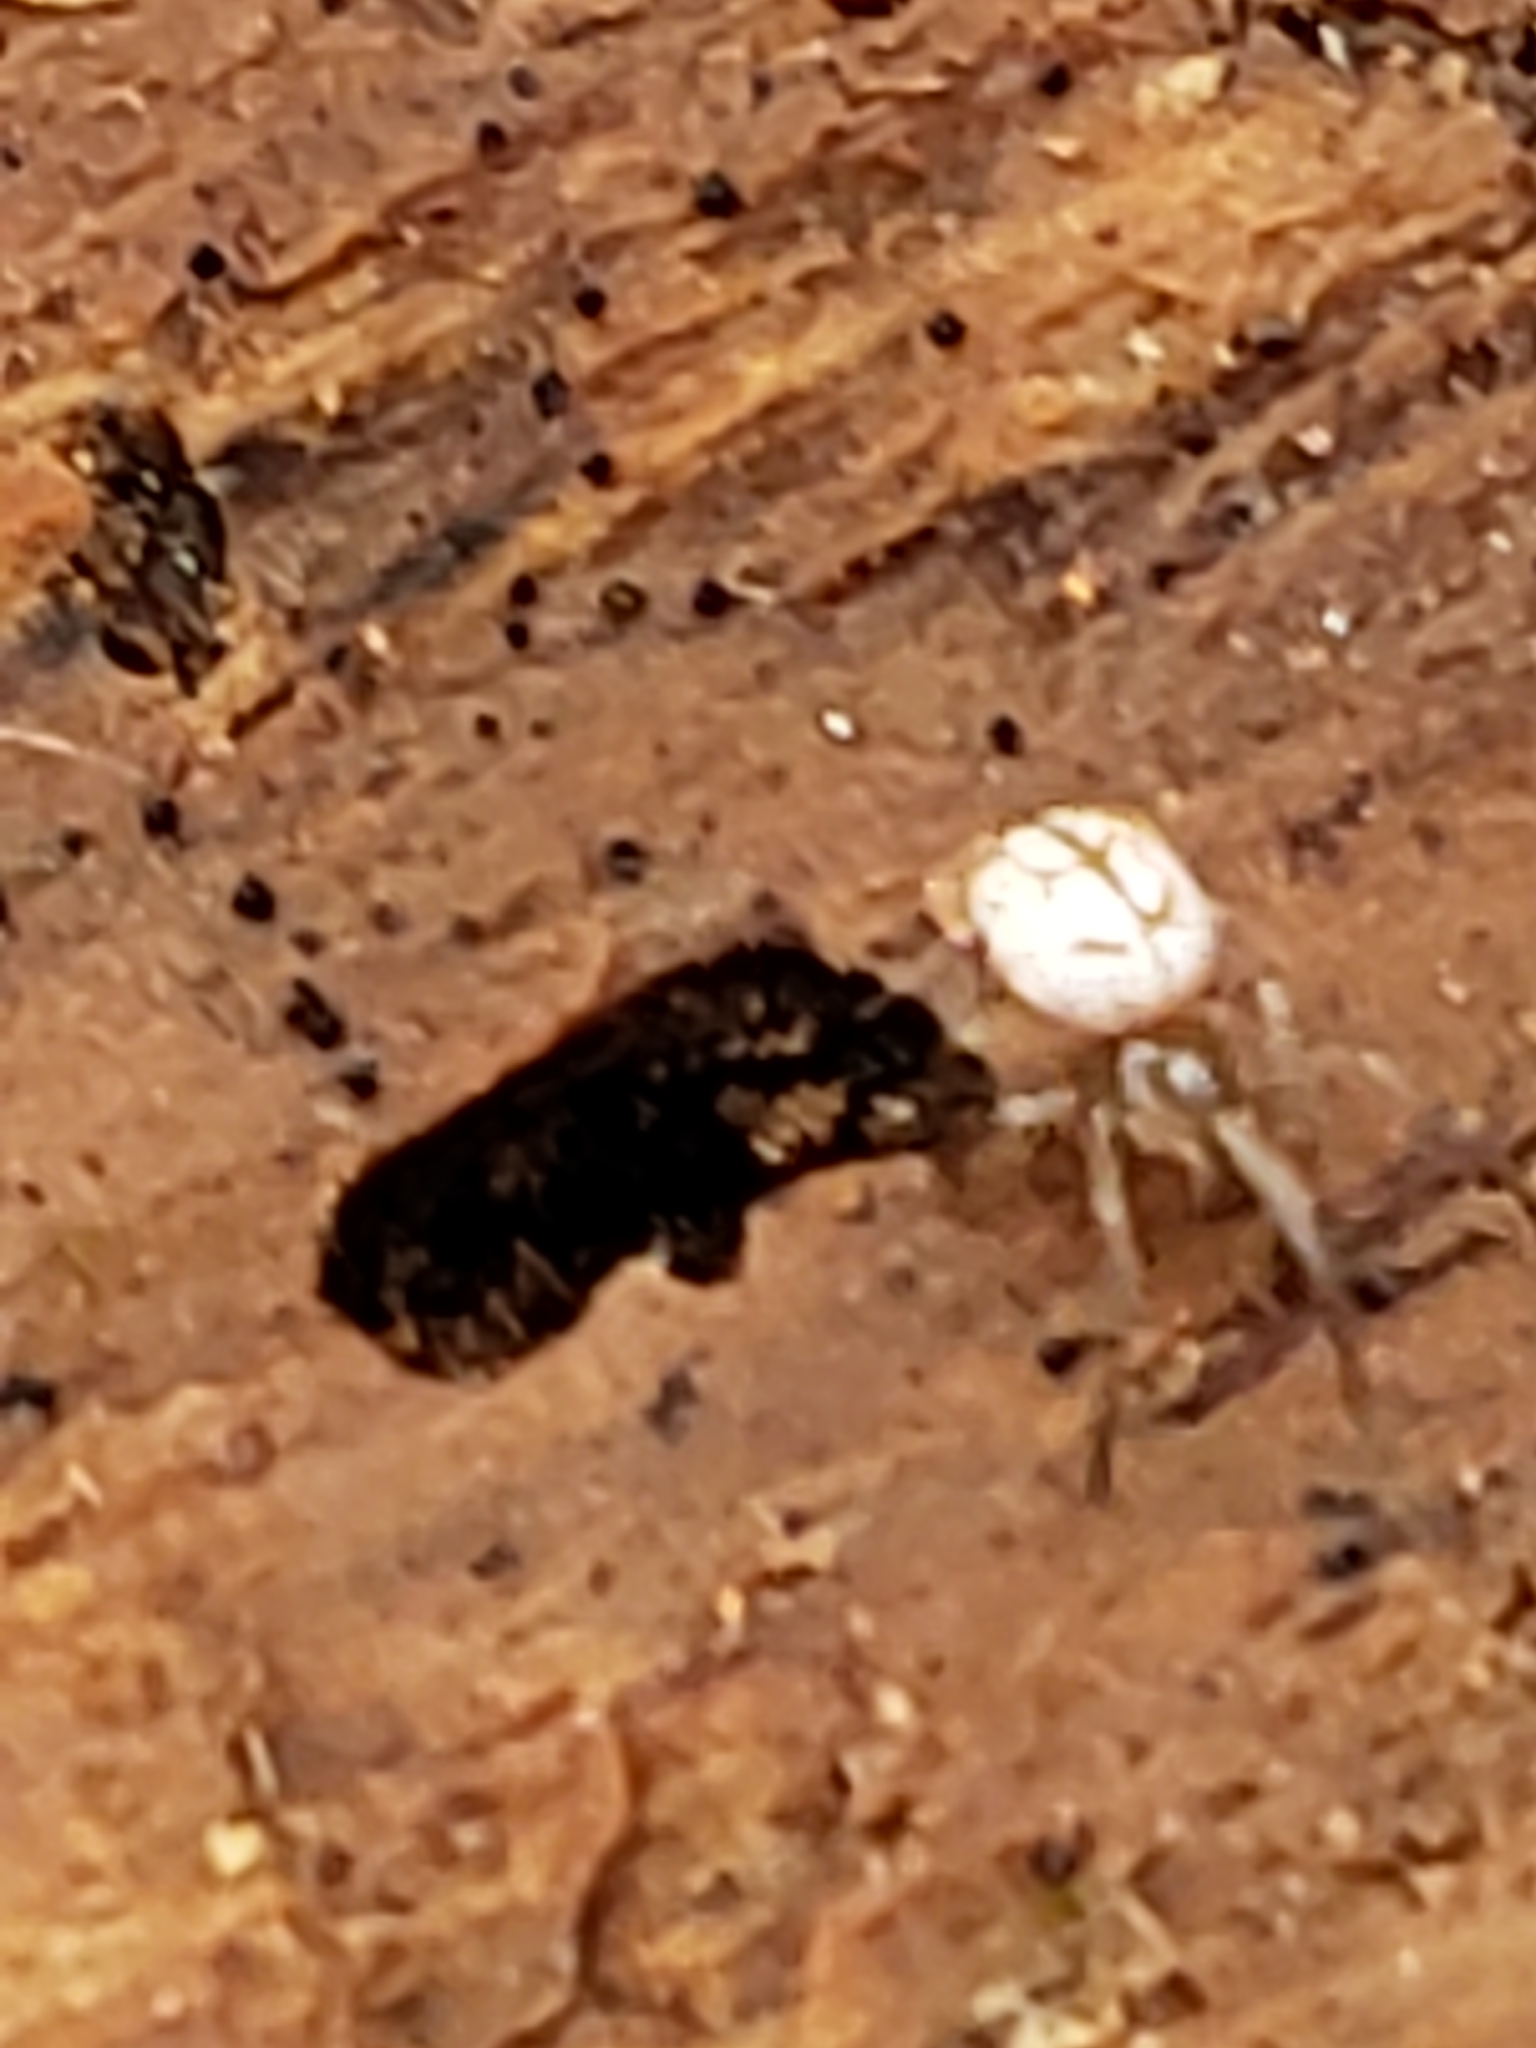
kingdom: Animalia
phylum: Arthropoda
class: Arachnida
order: Araneae
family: Tetragnathidae
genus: Leucauge
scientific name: Leucauge venusta
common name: Longjawed orb weavers
